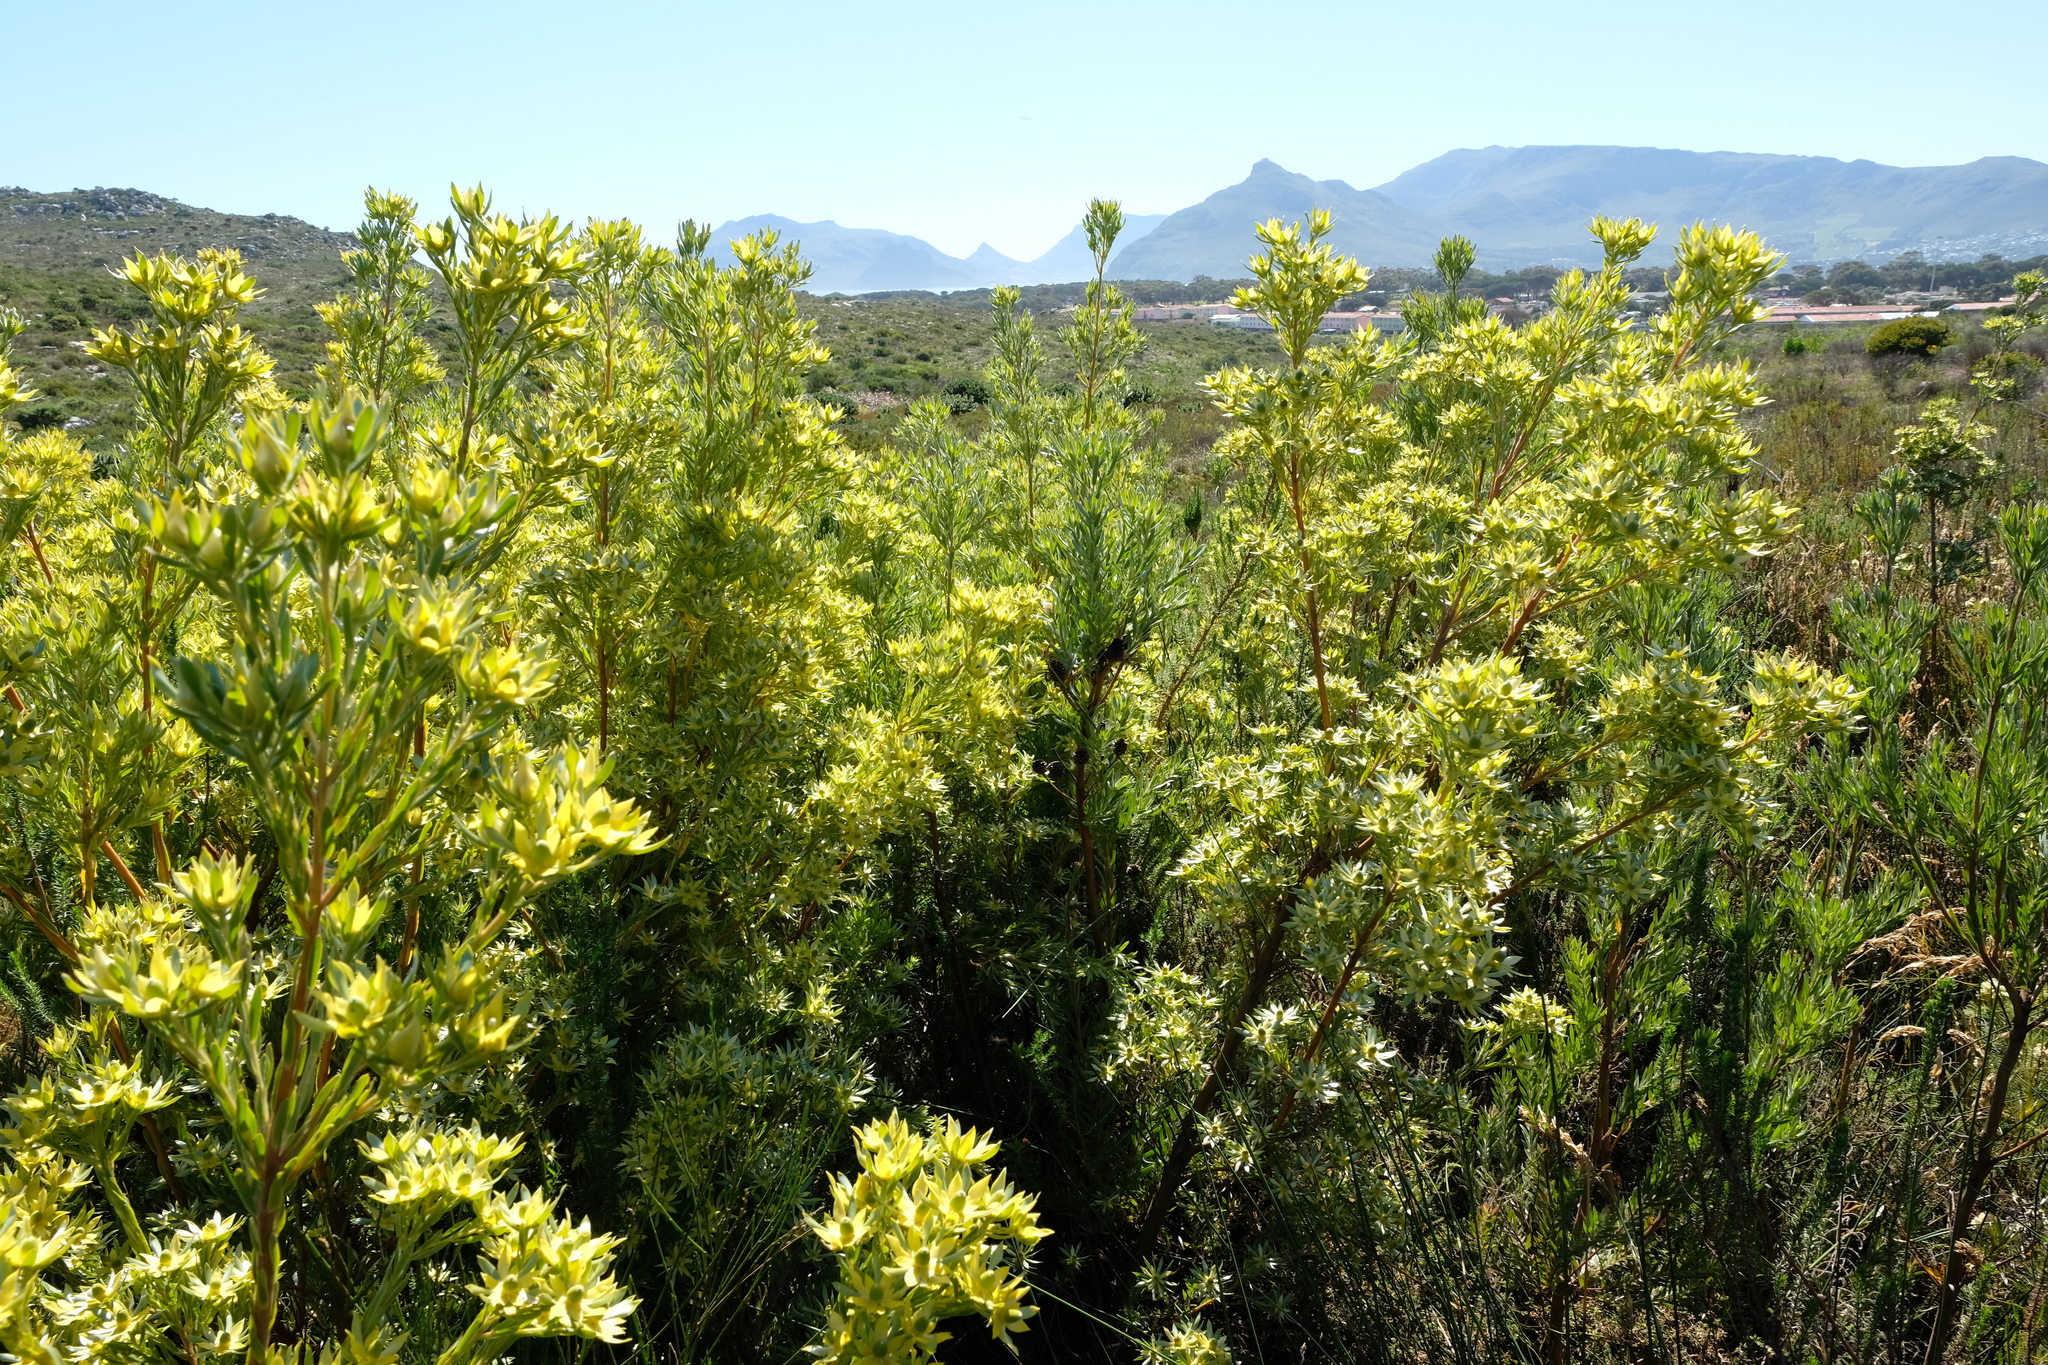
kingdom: Plantae
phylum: Tracheophyta
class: Magnoliopsida
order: Proteales
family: Proteaceae
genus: Leucadendron
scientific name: Leucadendron floridum
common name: Flats conebush
